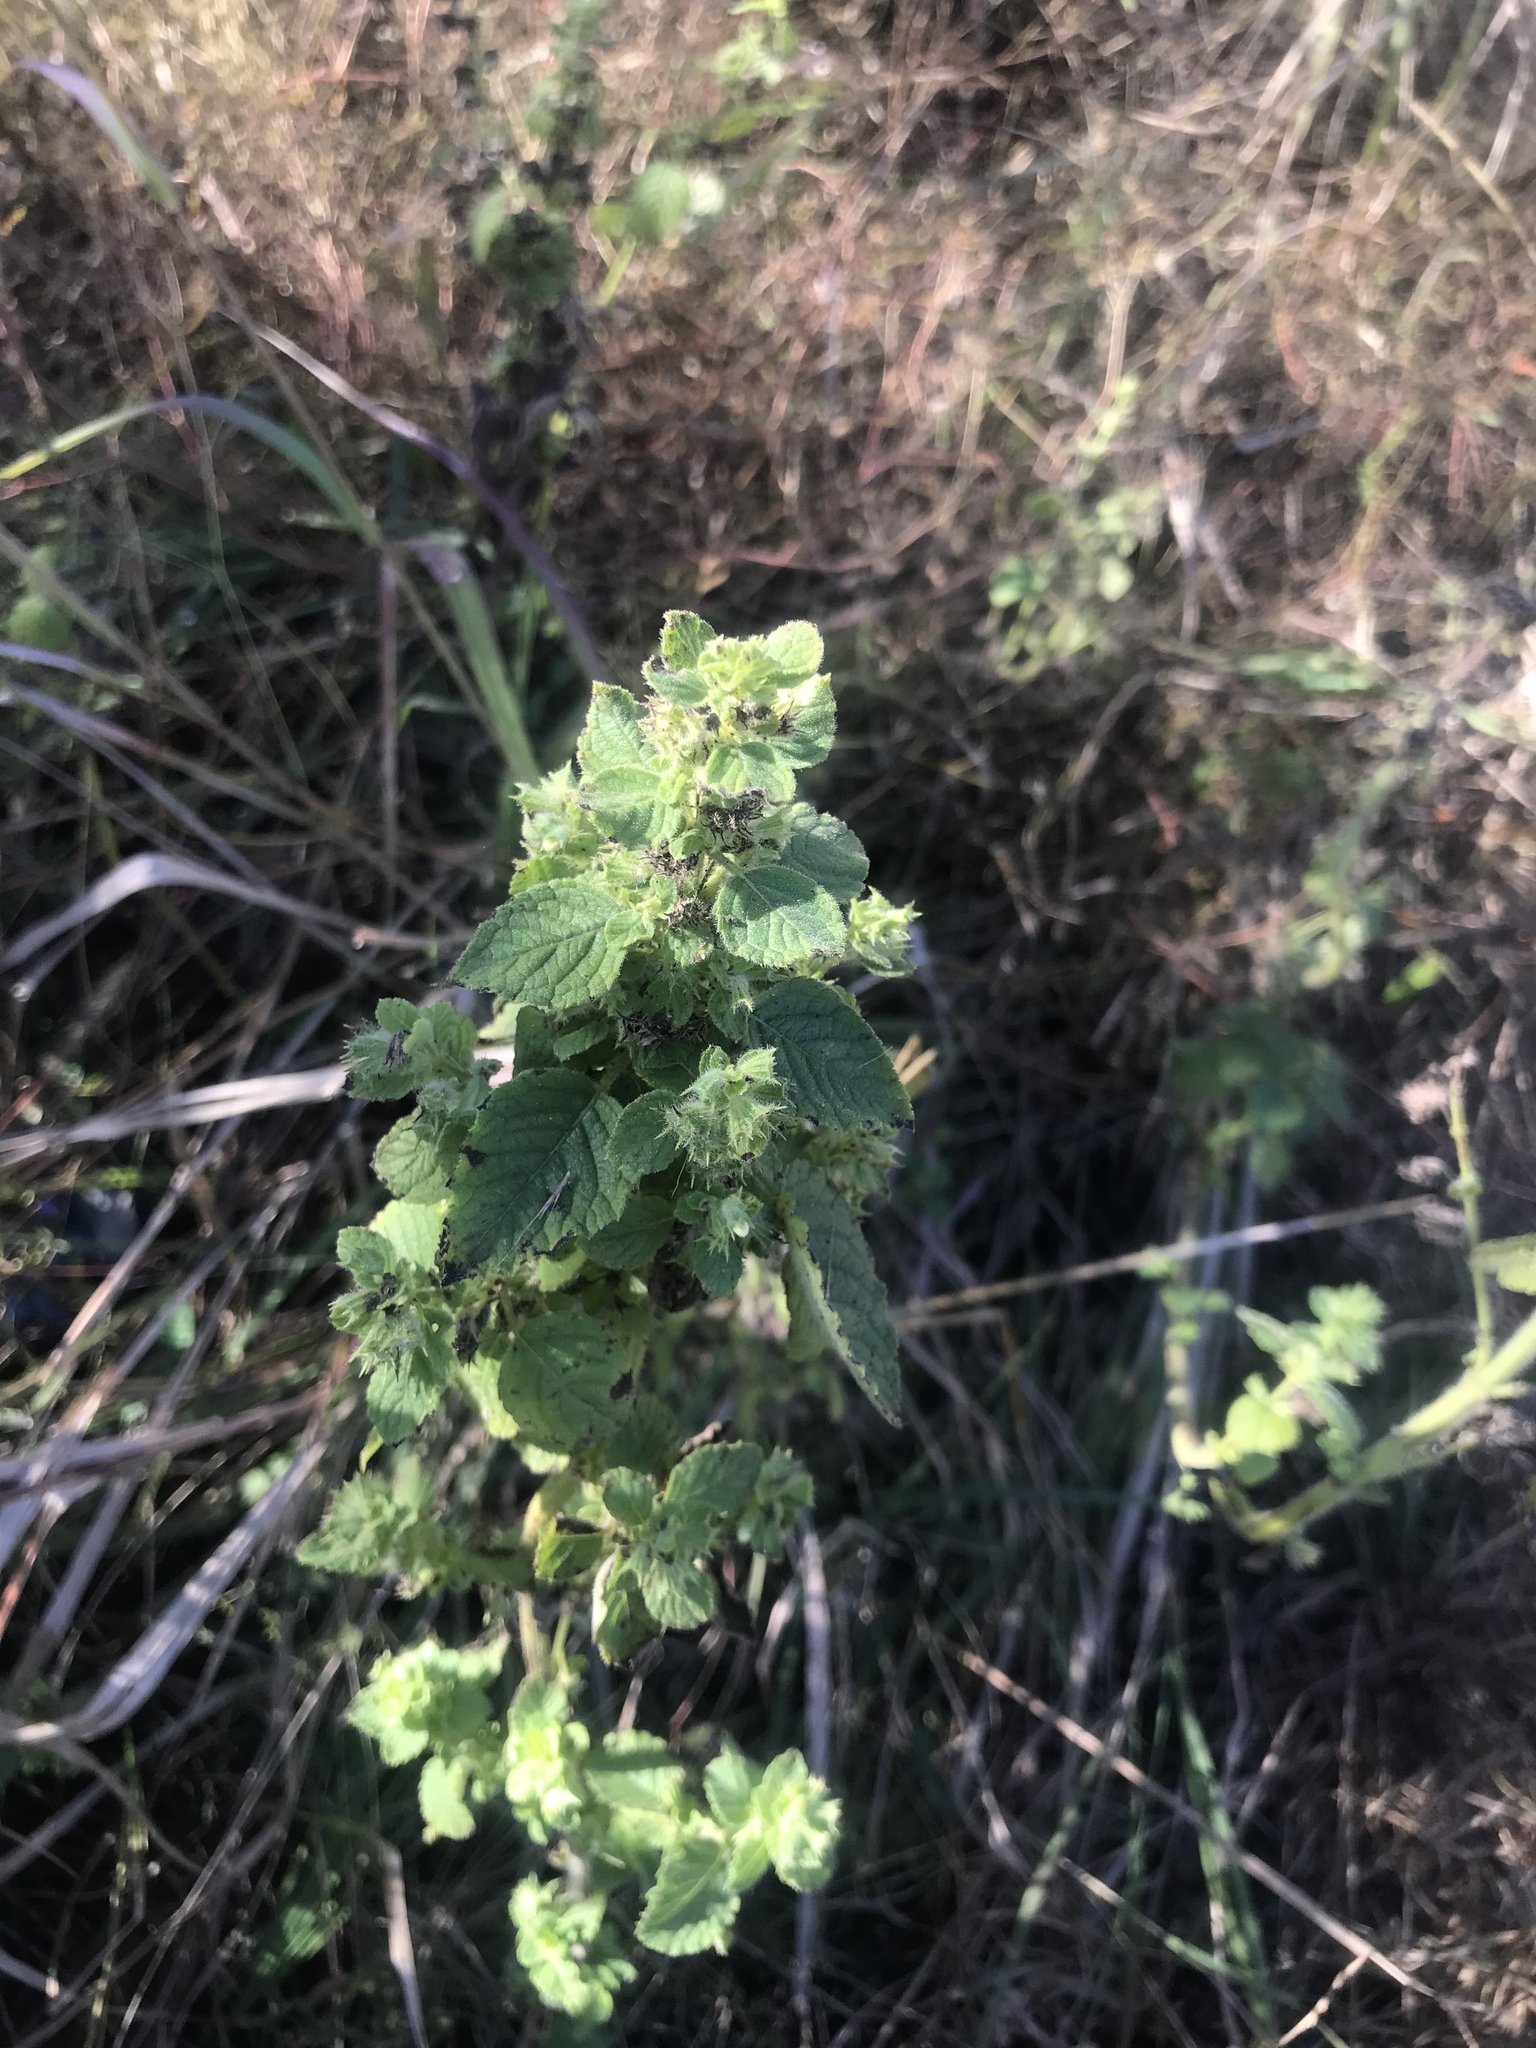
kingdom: Plantae
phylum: Tracheophyta
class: Magnoliopsida
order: Lamiales
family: Lamiaceae
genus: Mesosphaerum
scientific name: Mesosphaerum suaveolens
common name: Pignut
